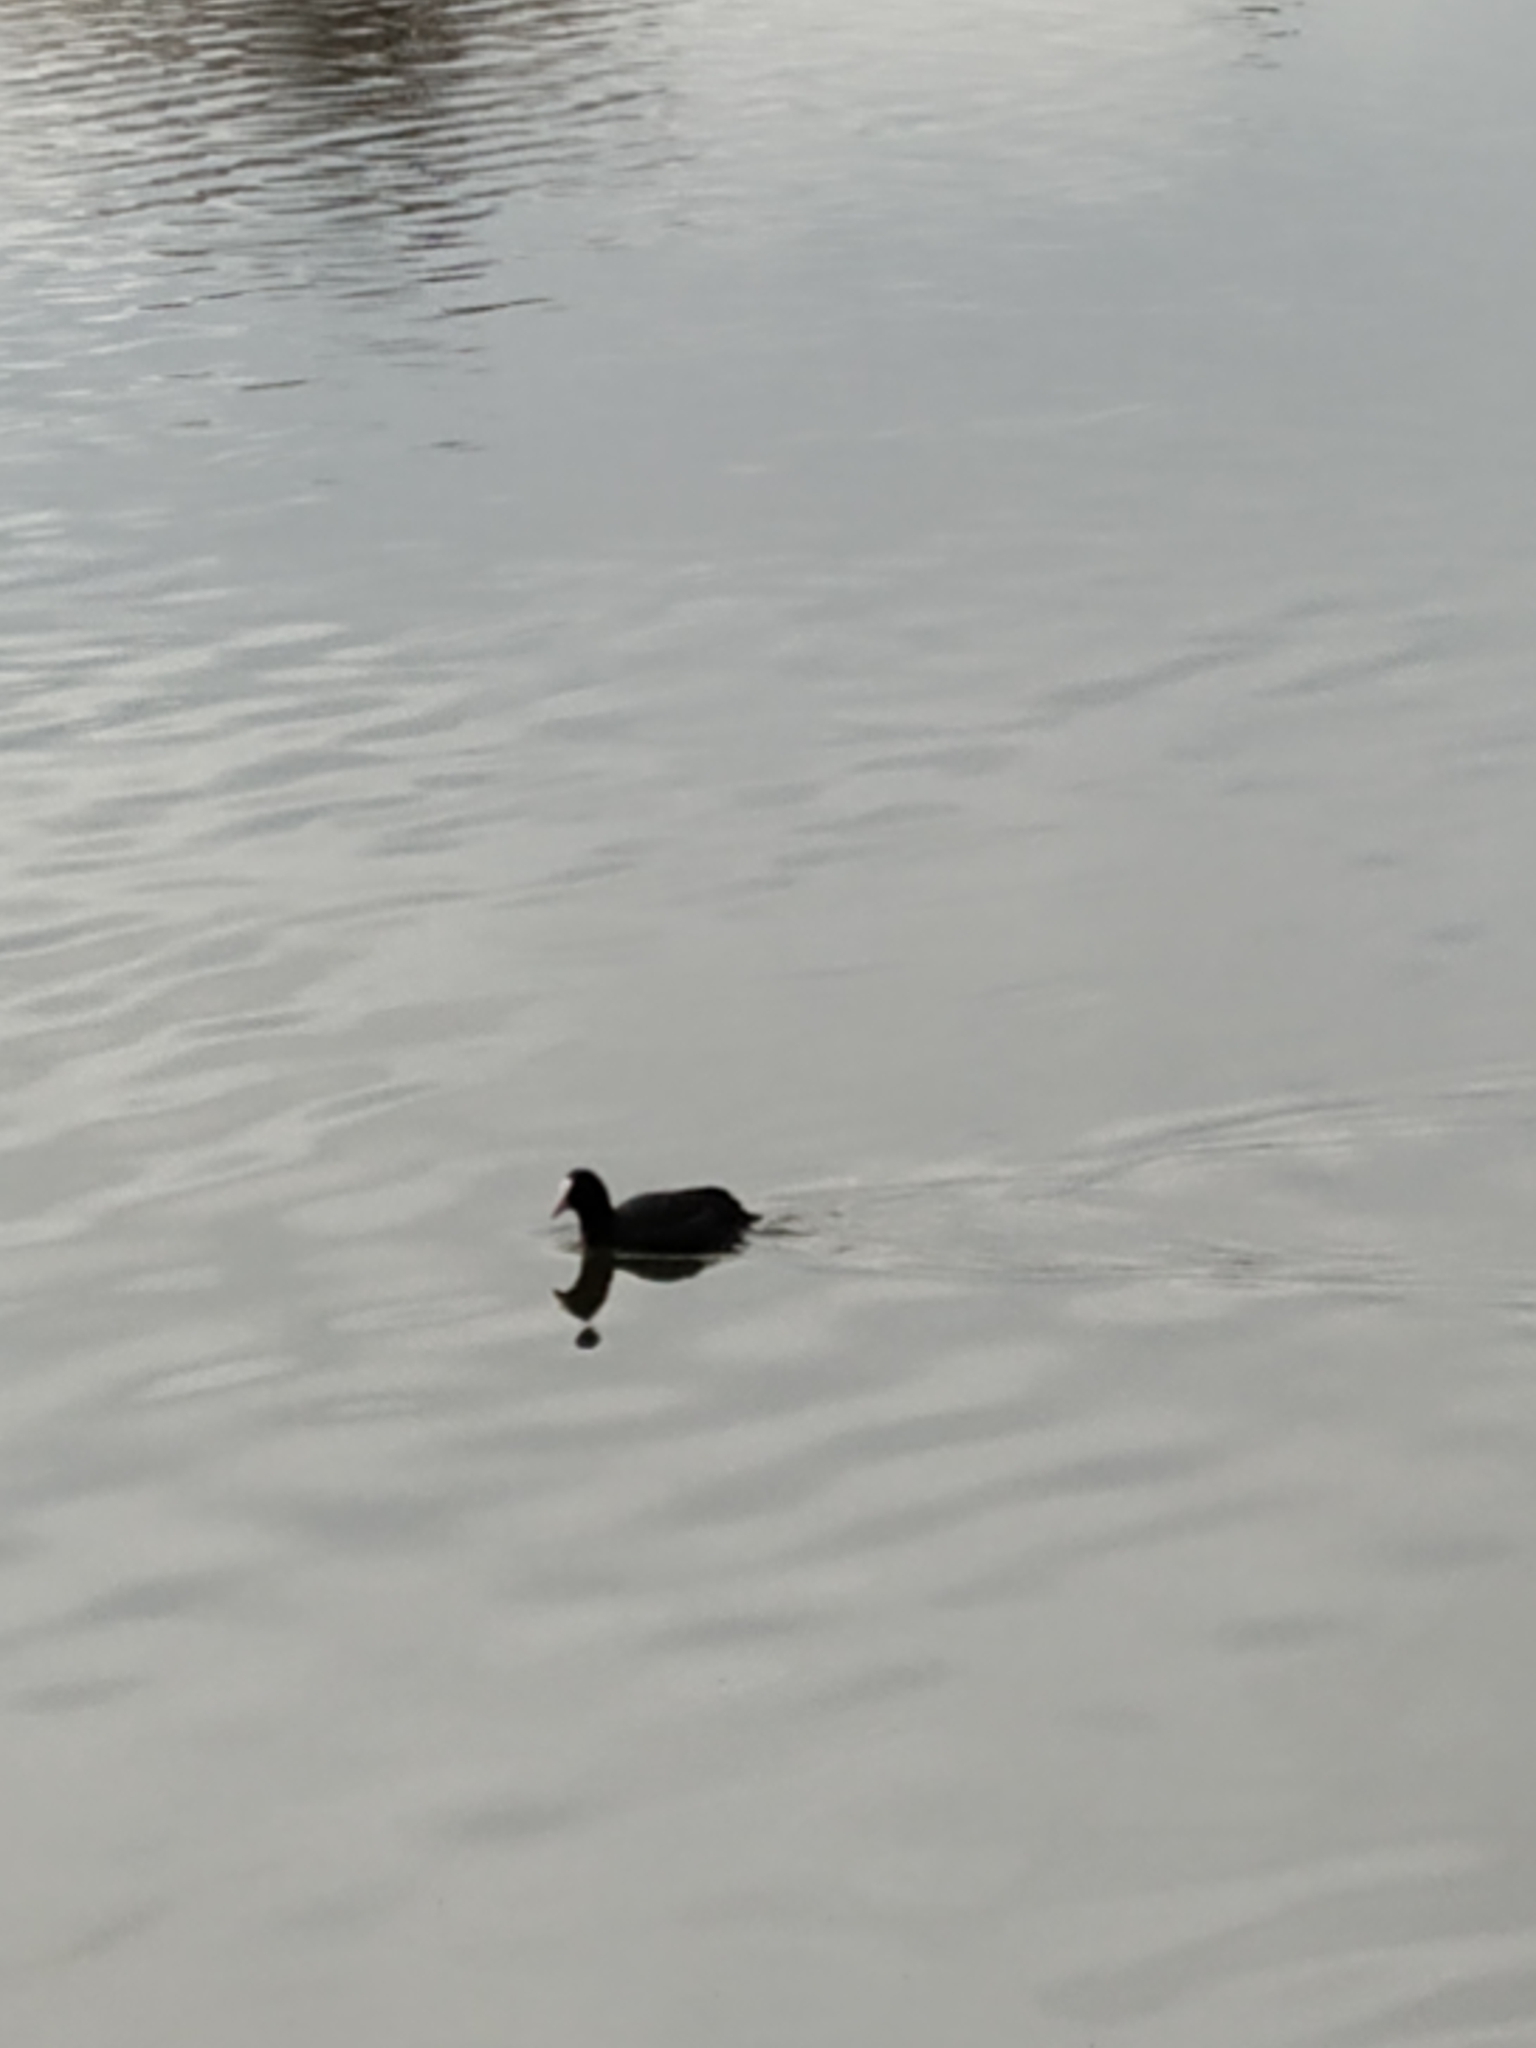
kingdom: Animalia
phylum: Chordata
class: Aves
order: Gruiformes
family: Rallidae
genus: Fulica
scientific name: Fulica atra
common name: Eurasian coot
